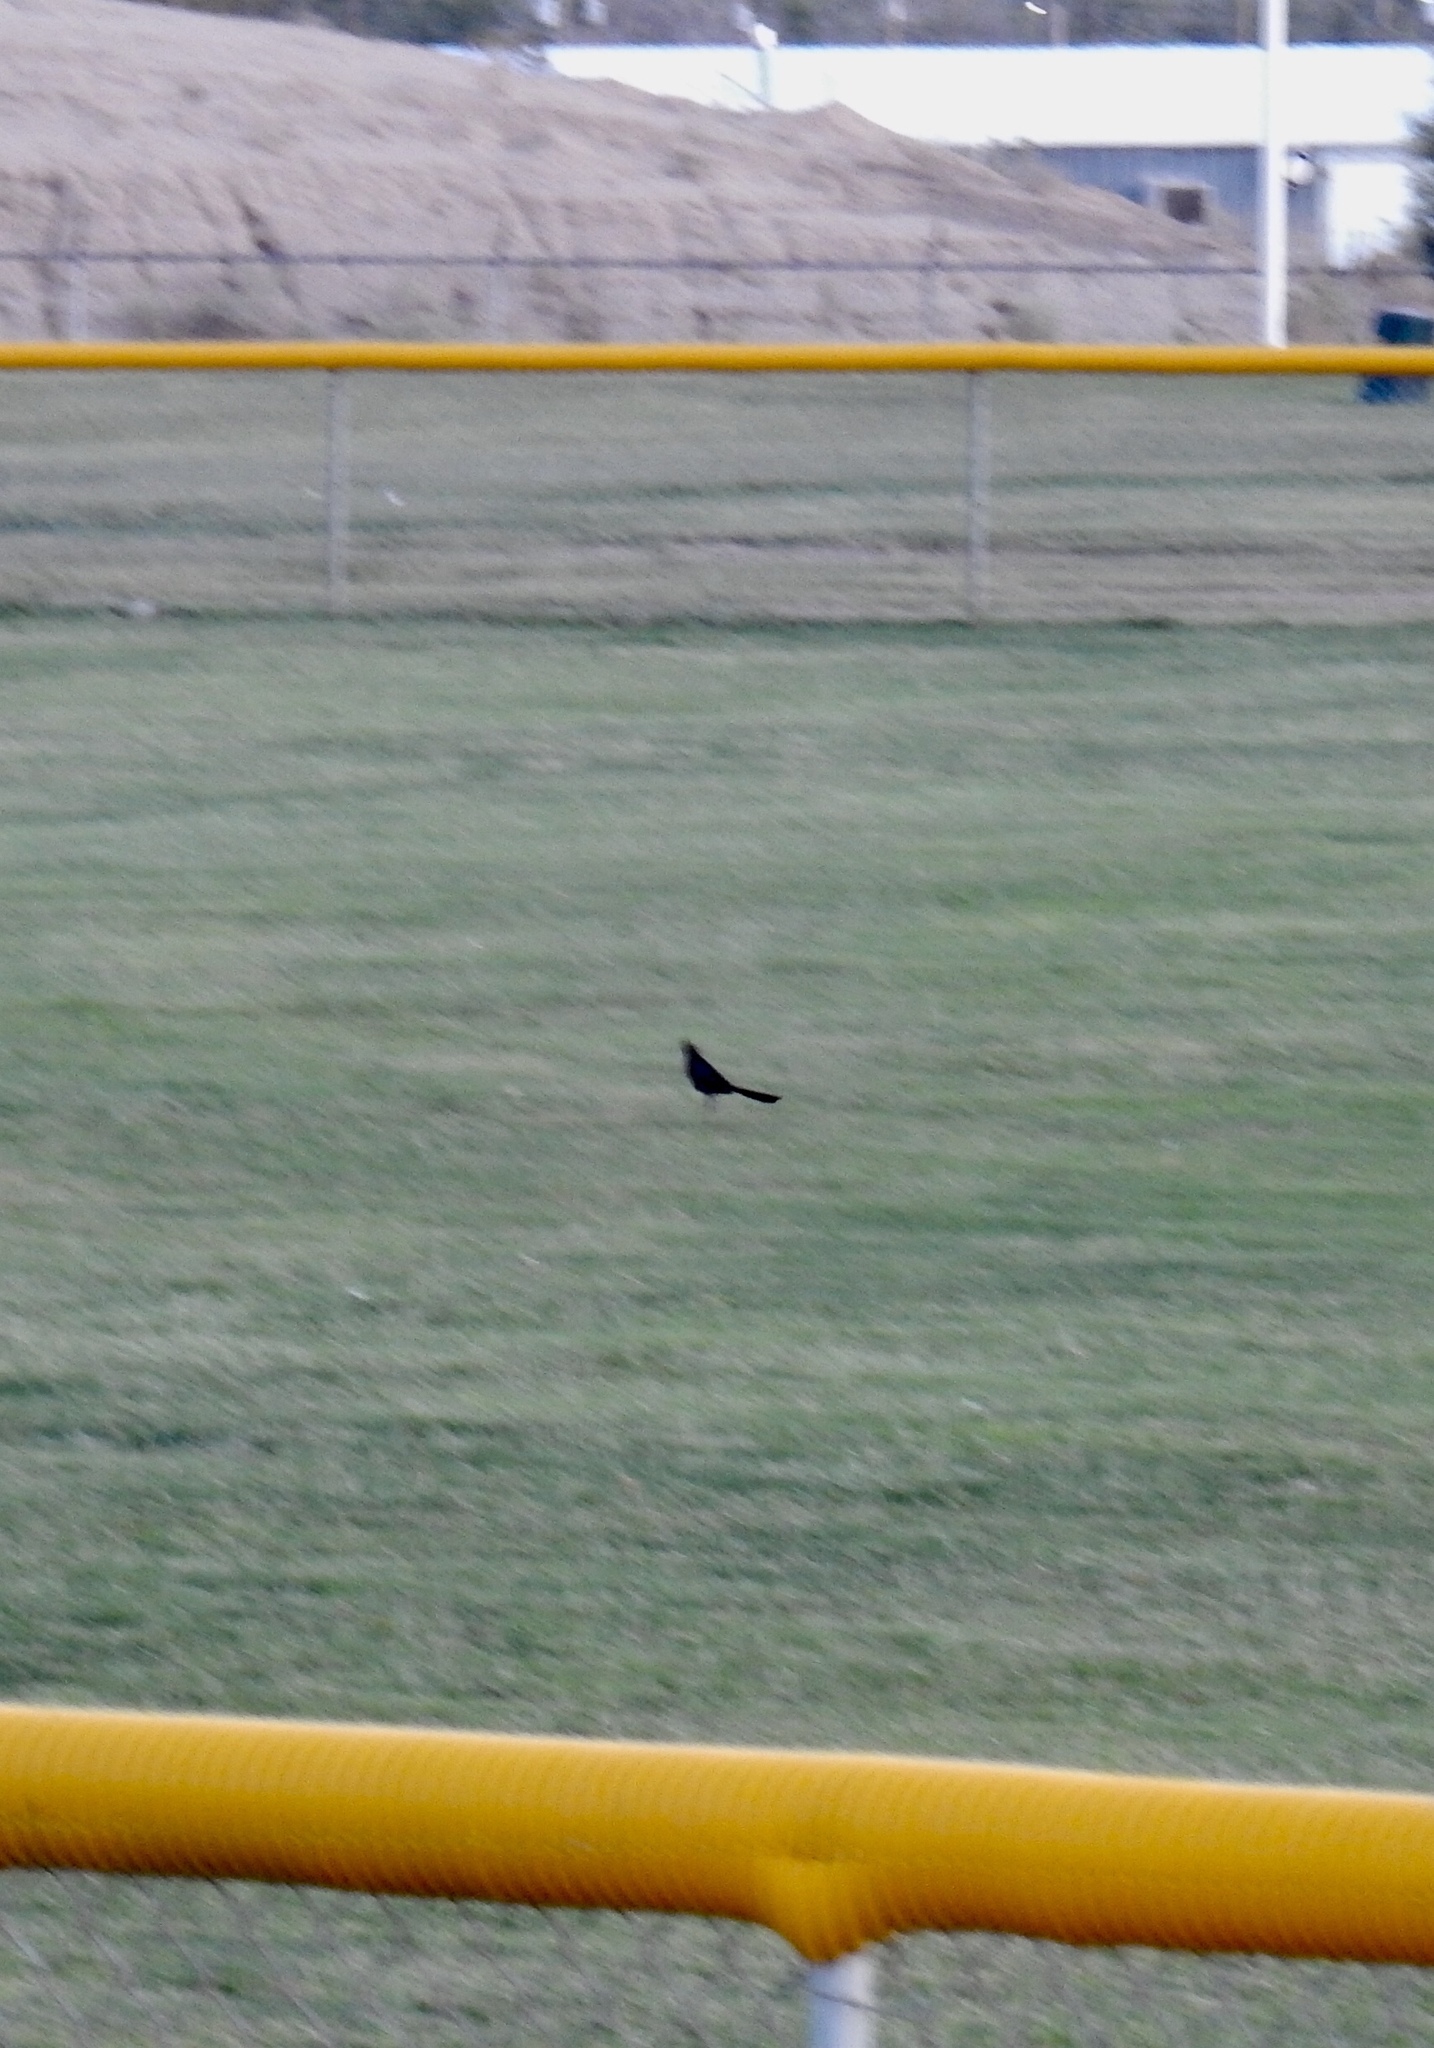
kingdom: Animalia
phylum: Chordata
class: Aves
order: Passeriformes
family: Icteridae
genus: Quiscalus
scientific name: Quiscalus mexicanus
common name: Great-tailed grackle
